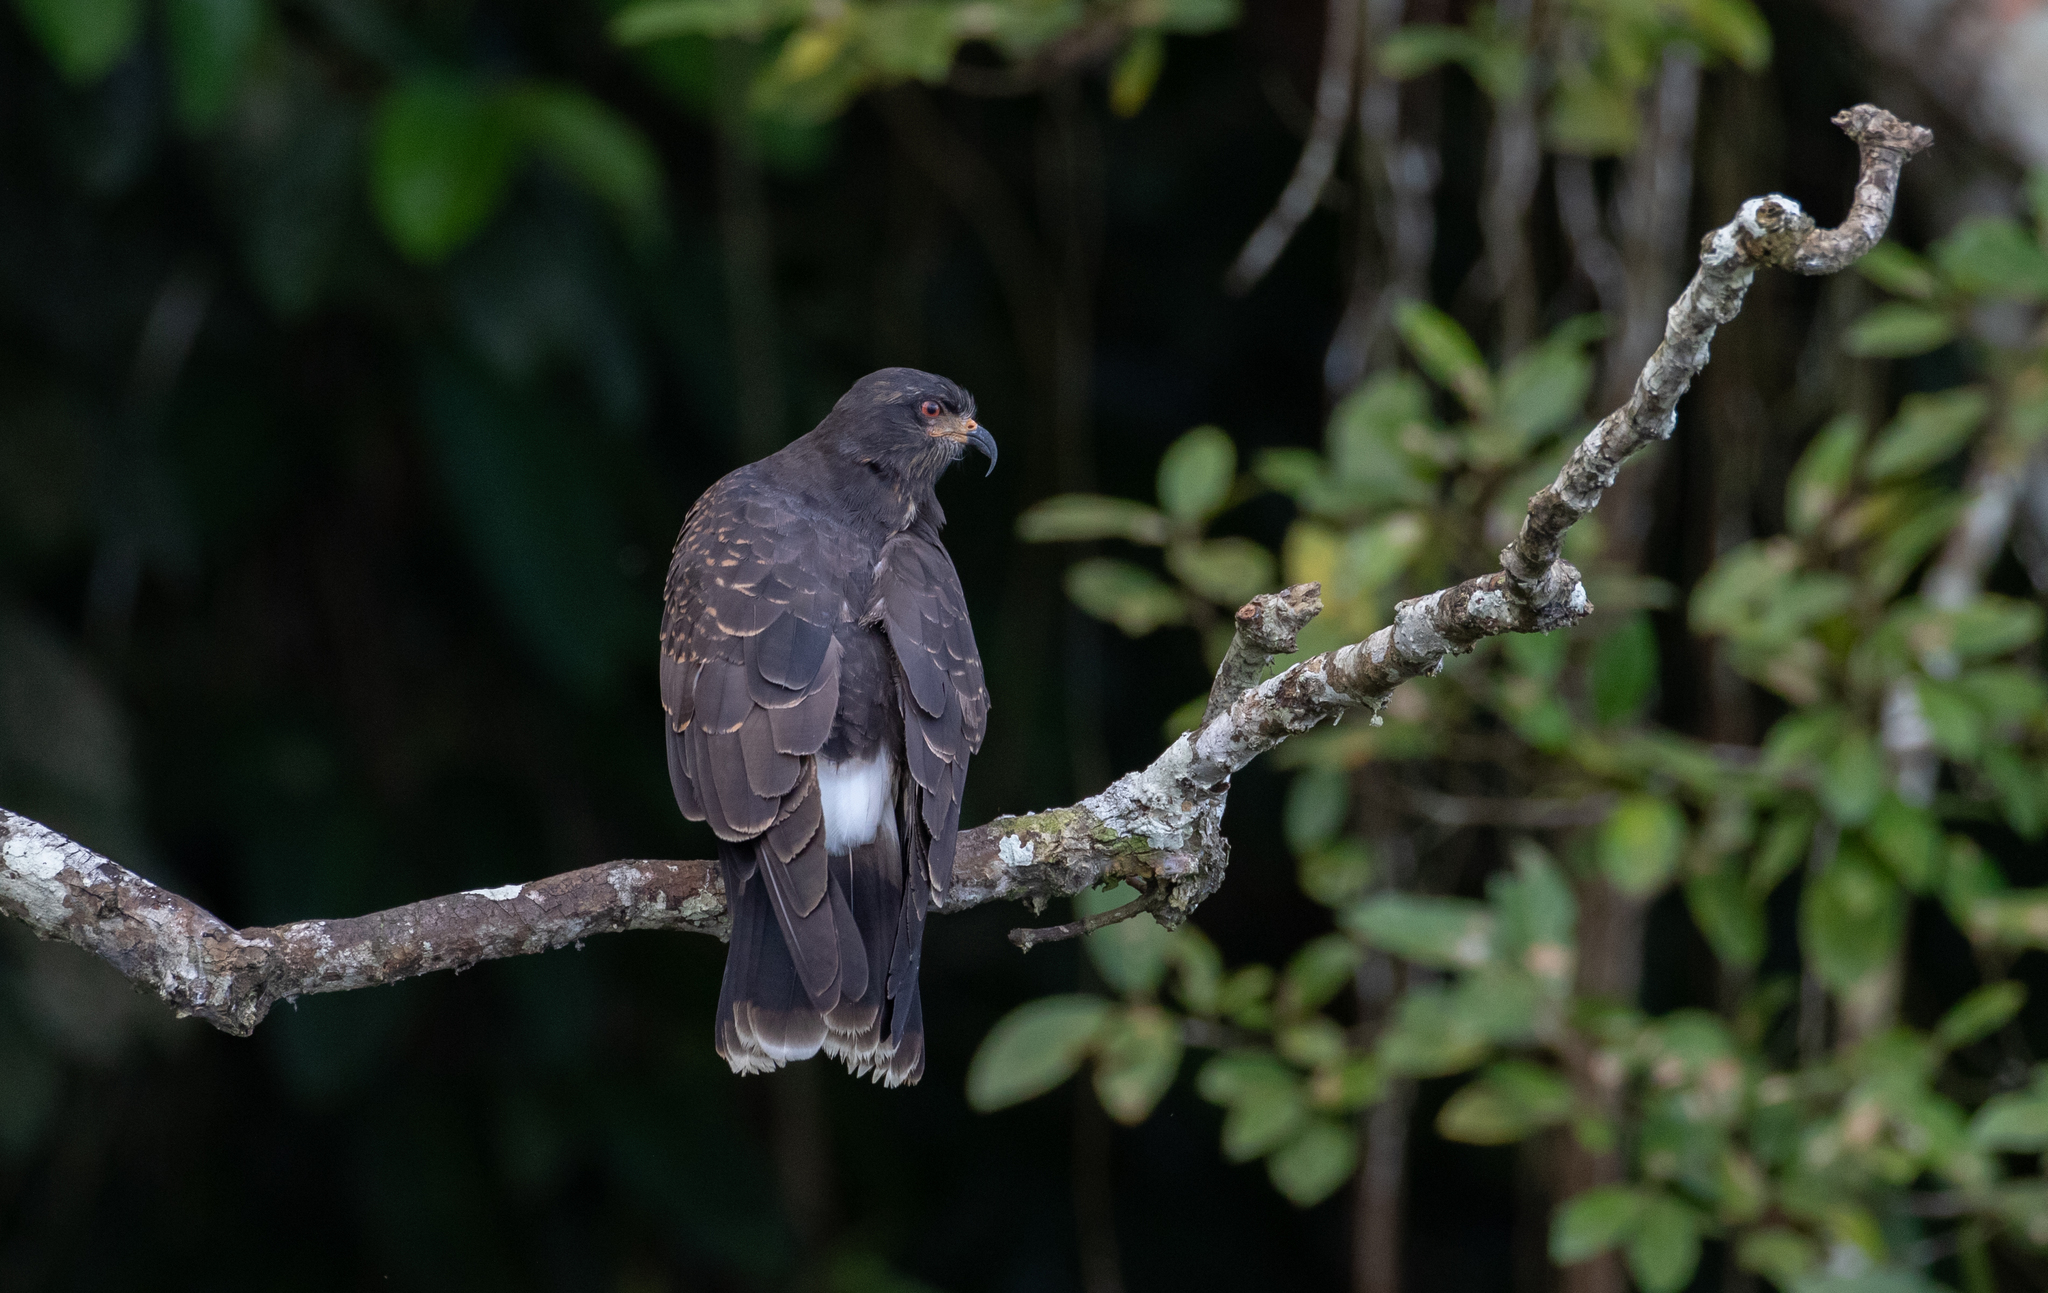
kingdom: Animalia
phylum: Chordata
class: Aves
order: Accipitriformes
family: Accipitridae
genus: Rostrhamus
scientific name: Rostrhamus sociabilis
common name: Snail kite
